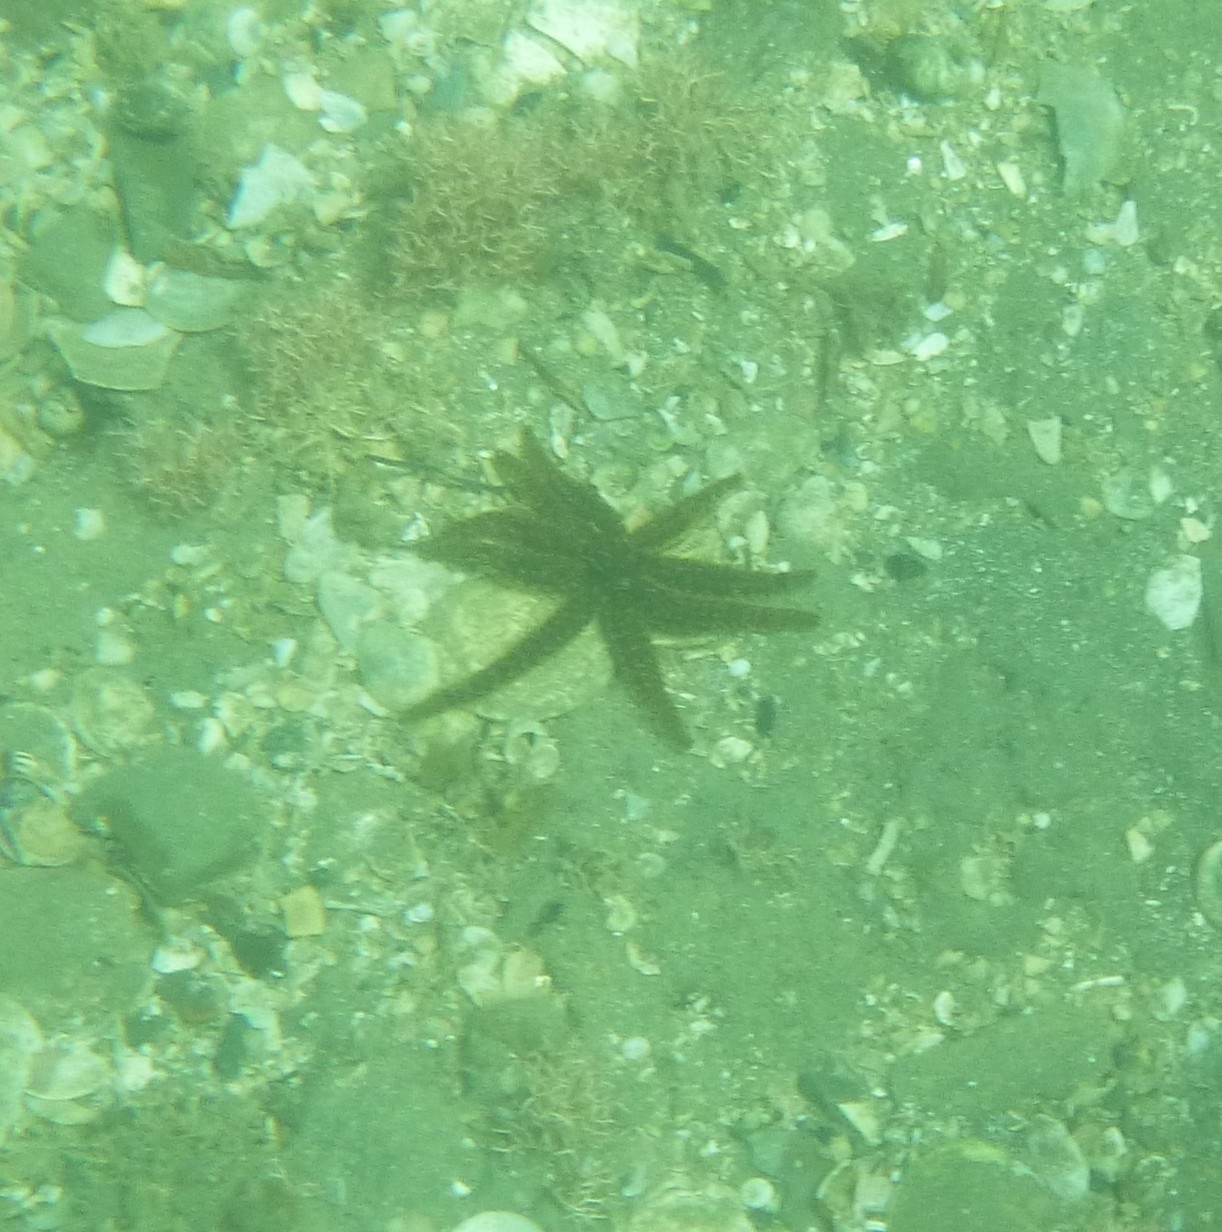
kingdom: Animalia
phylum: Echinodermata
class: Asteroidea
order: Forcipulatida
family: Asteriidae
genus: Coscinasterias
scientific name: Coscinasterias muricata
